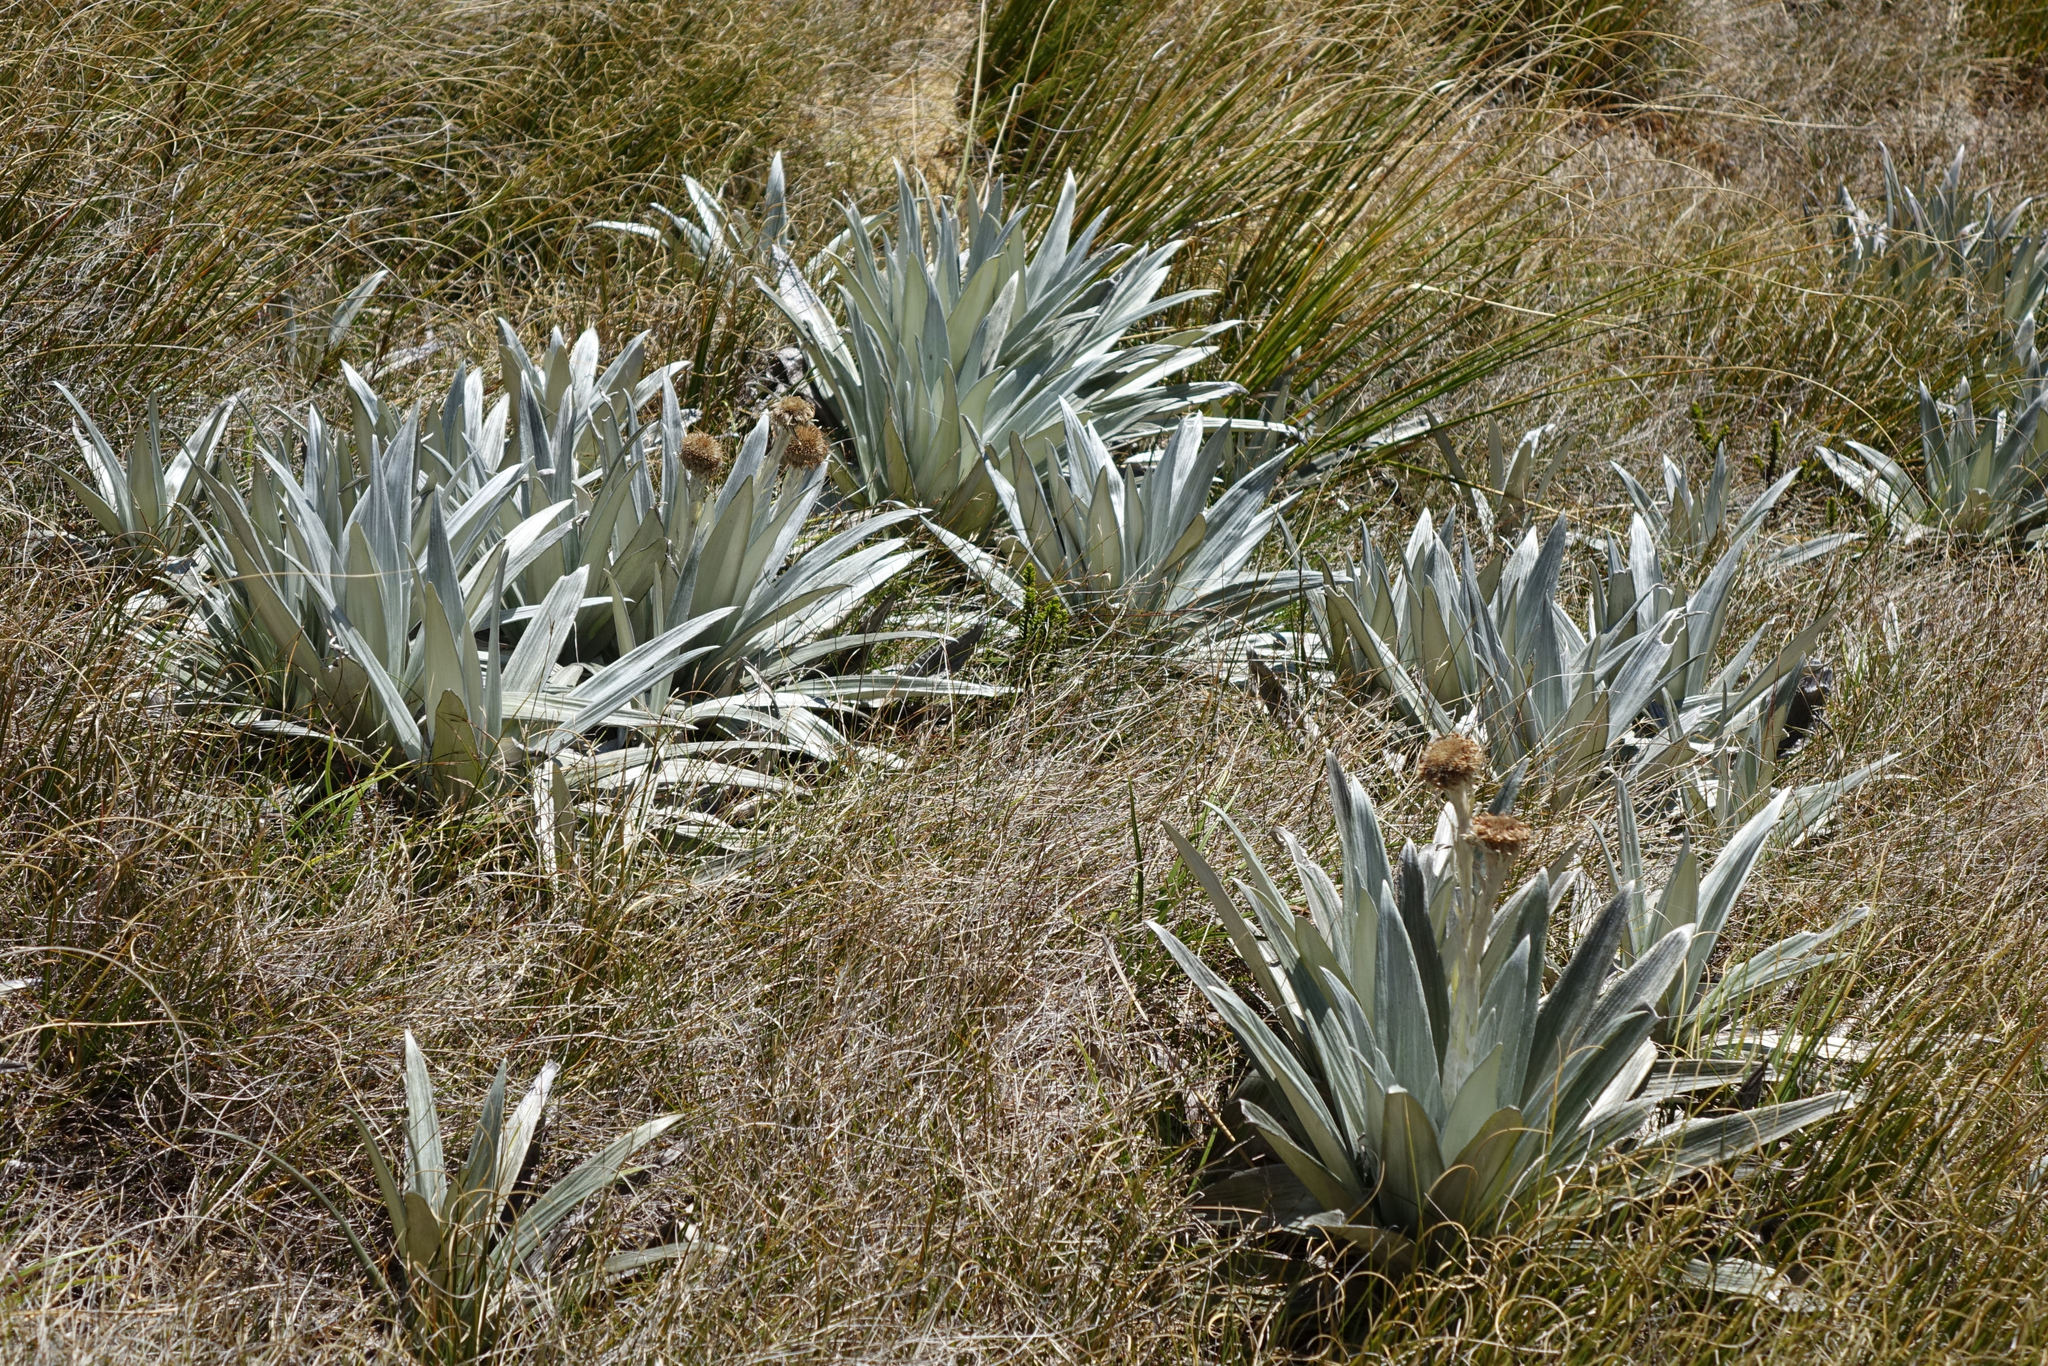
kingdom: Plantae
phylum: Tracheophyta
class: Magnoliopsida
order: Asterales
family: Asteraceae
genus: Celmisia
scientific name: Celmisia semicordata
